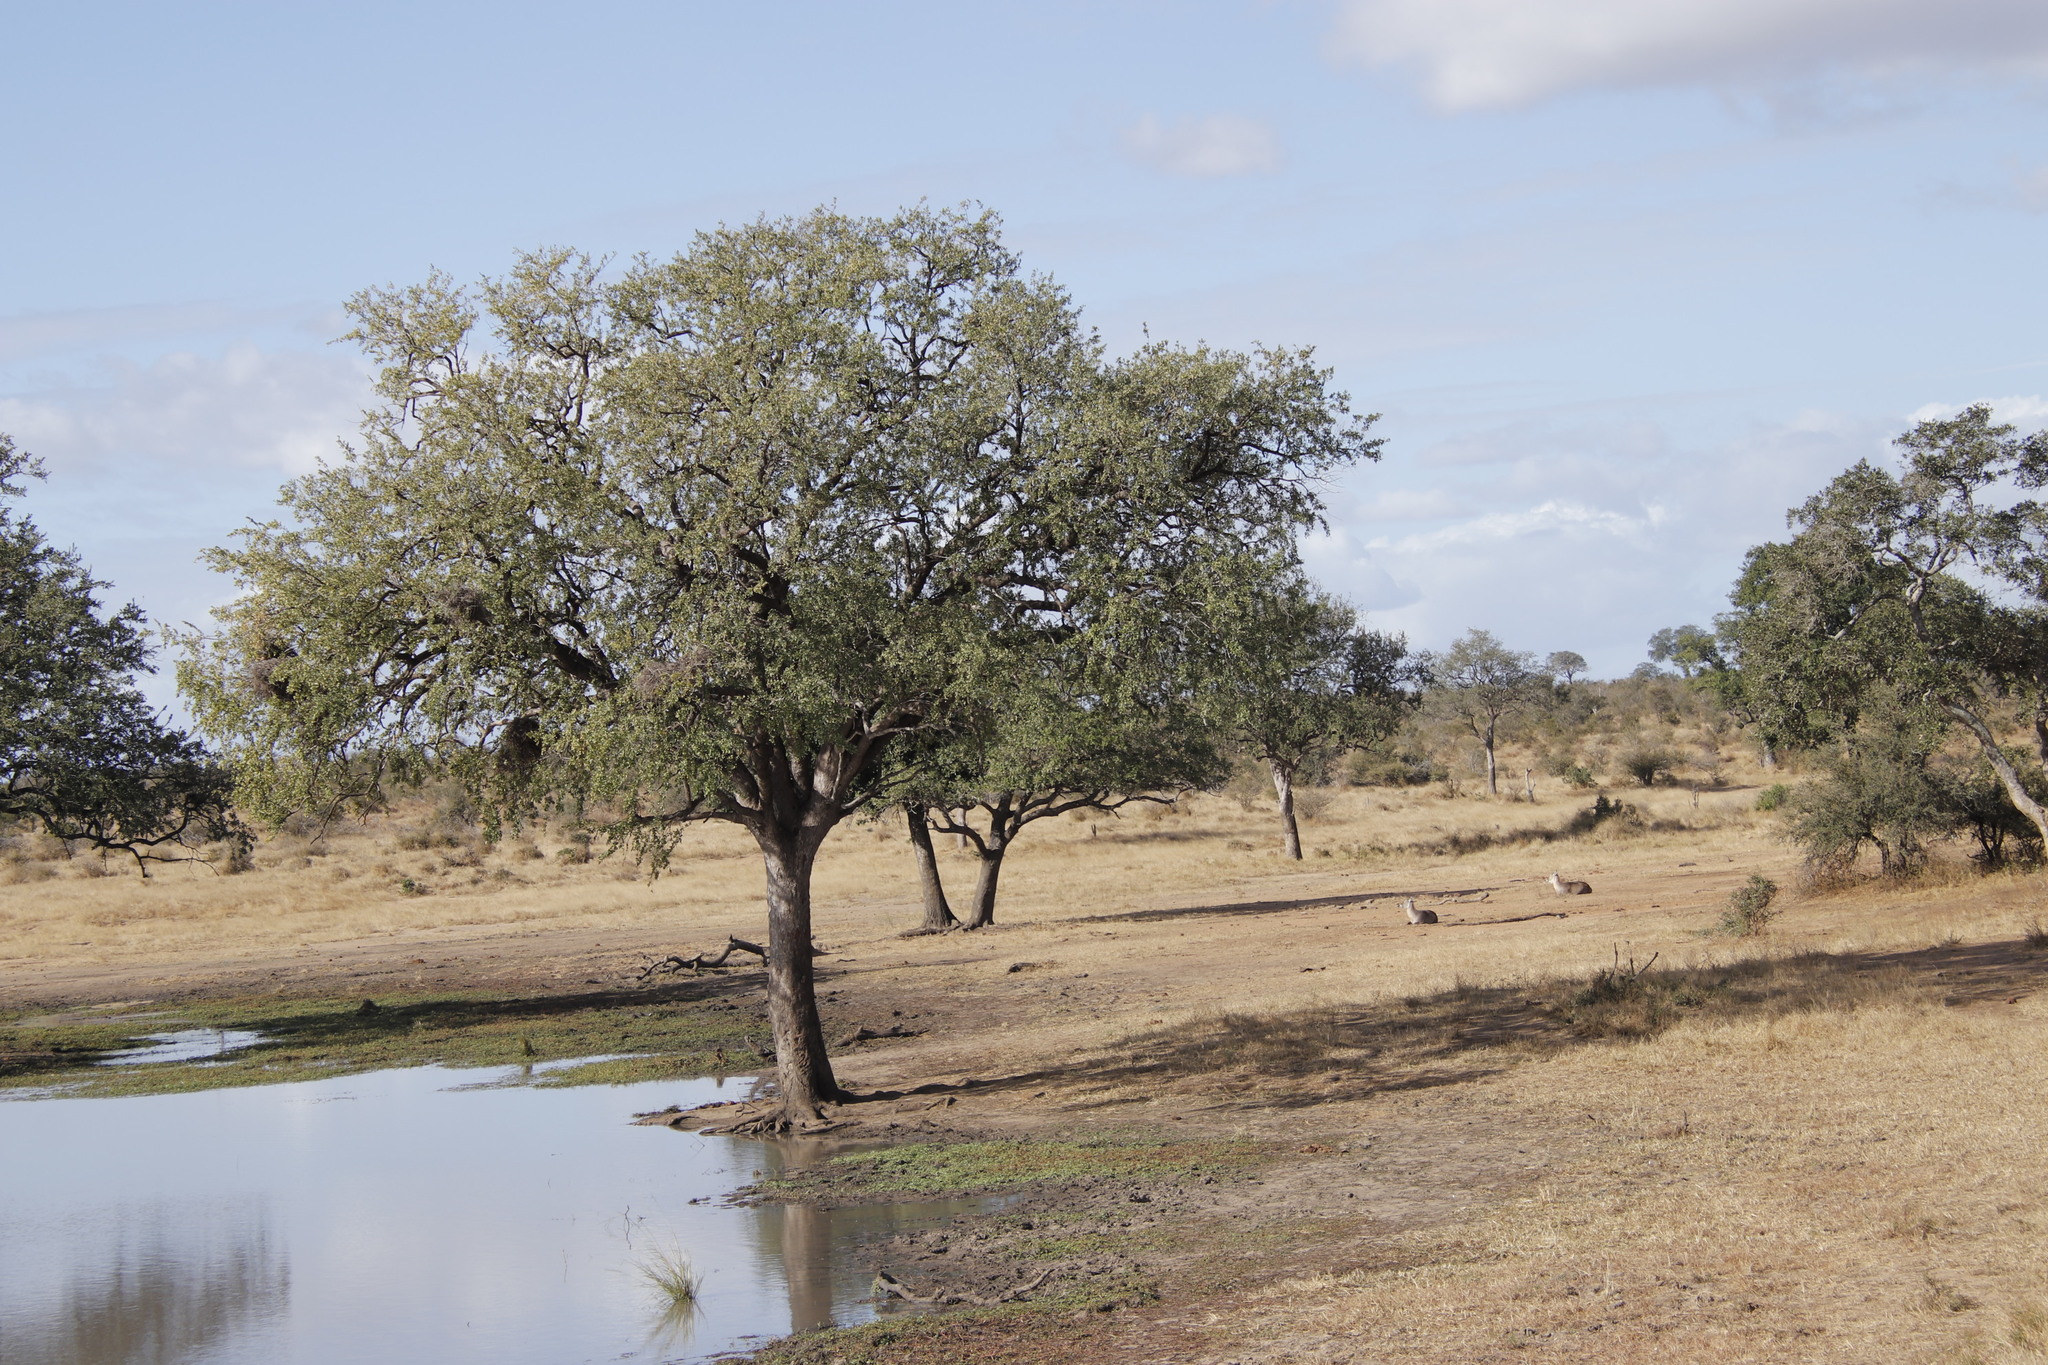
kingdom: Plantae
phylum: Tracheophyta
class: Magnoliopsida
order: Myrtales
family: Combretaceae
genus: Combretum
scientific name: Combretum imberbe
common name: Leadwood
